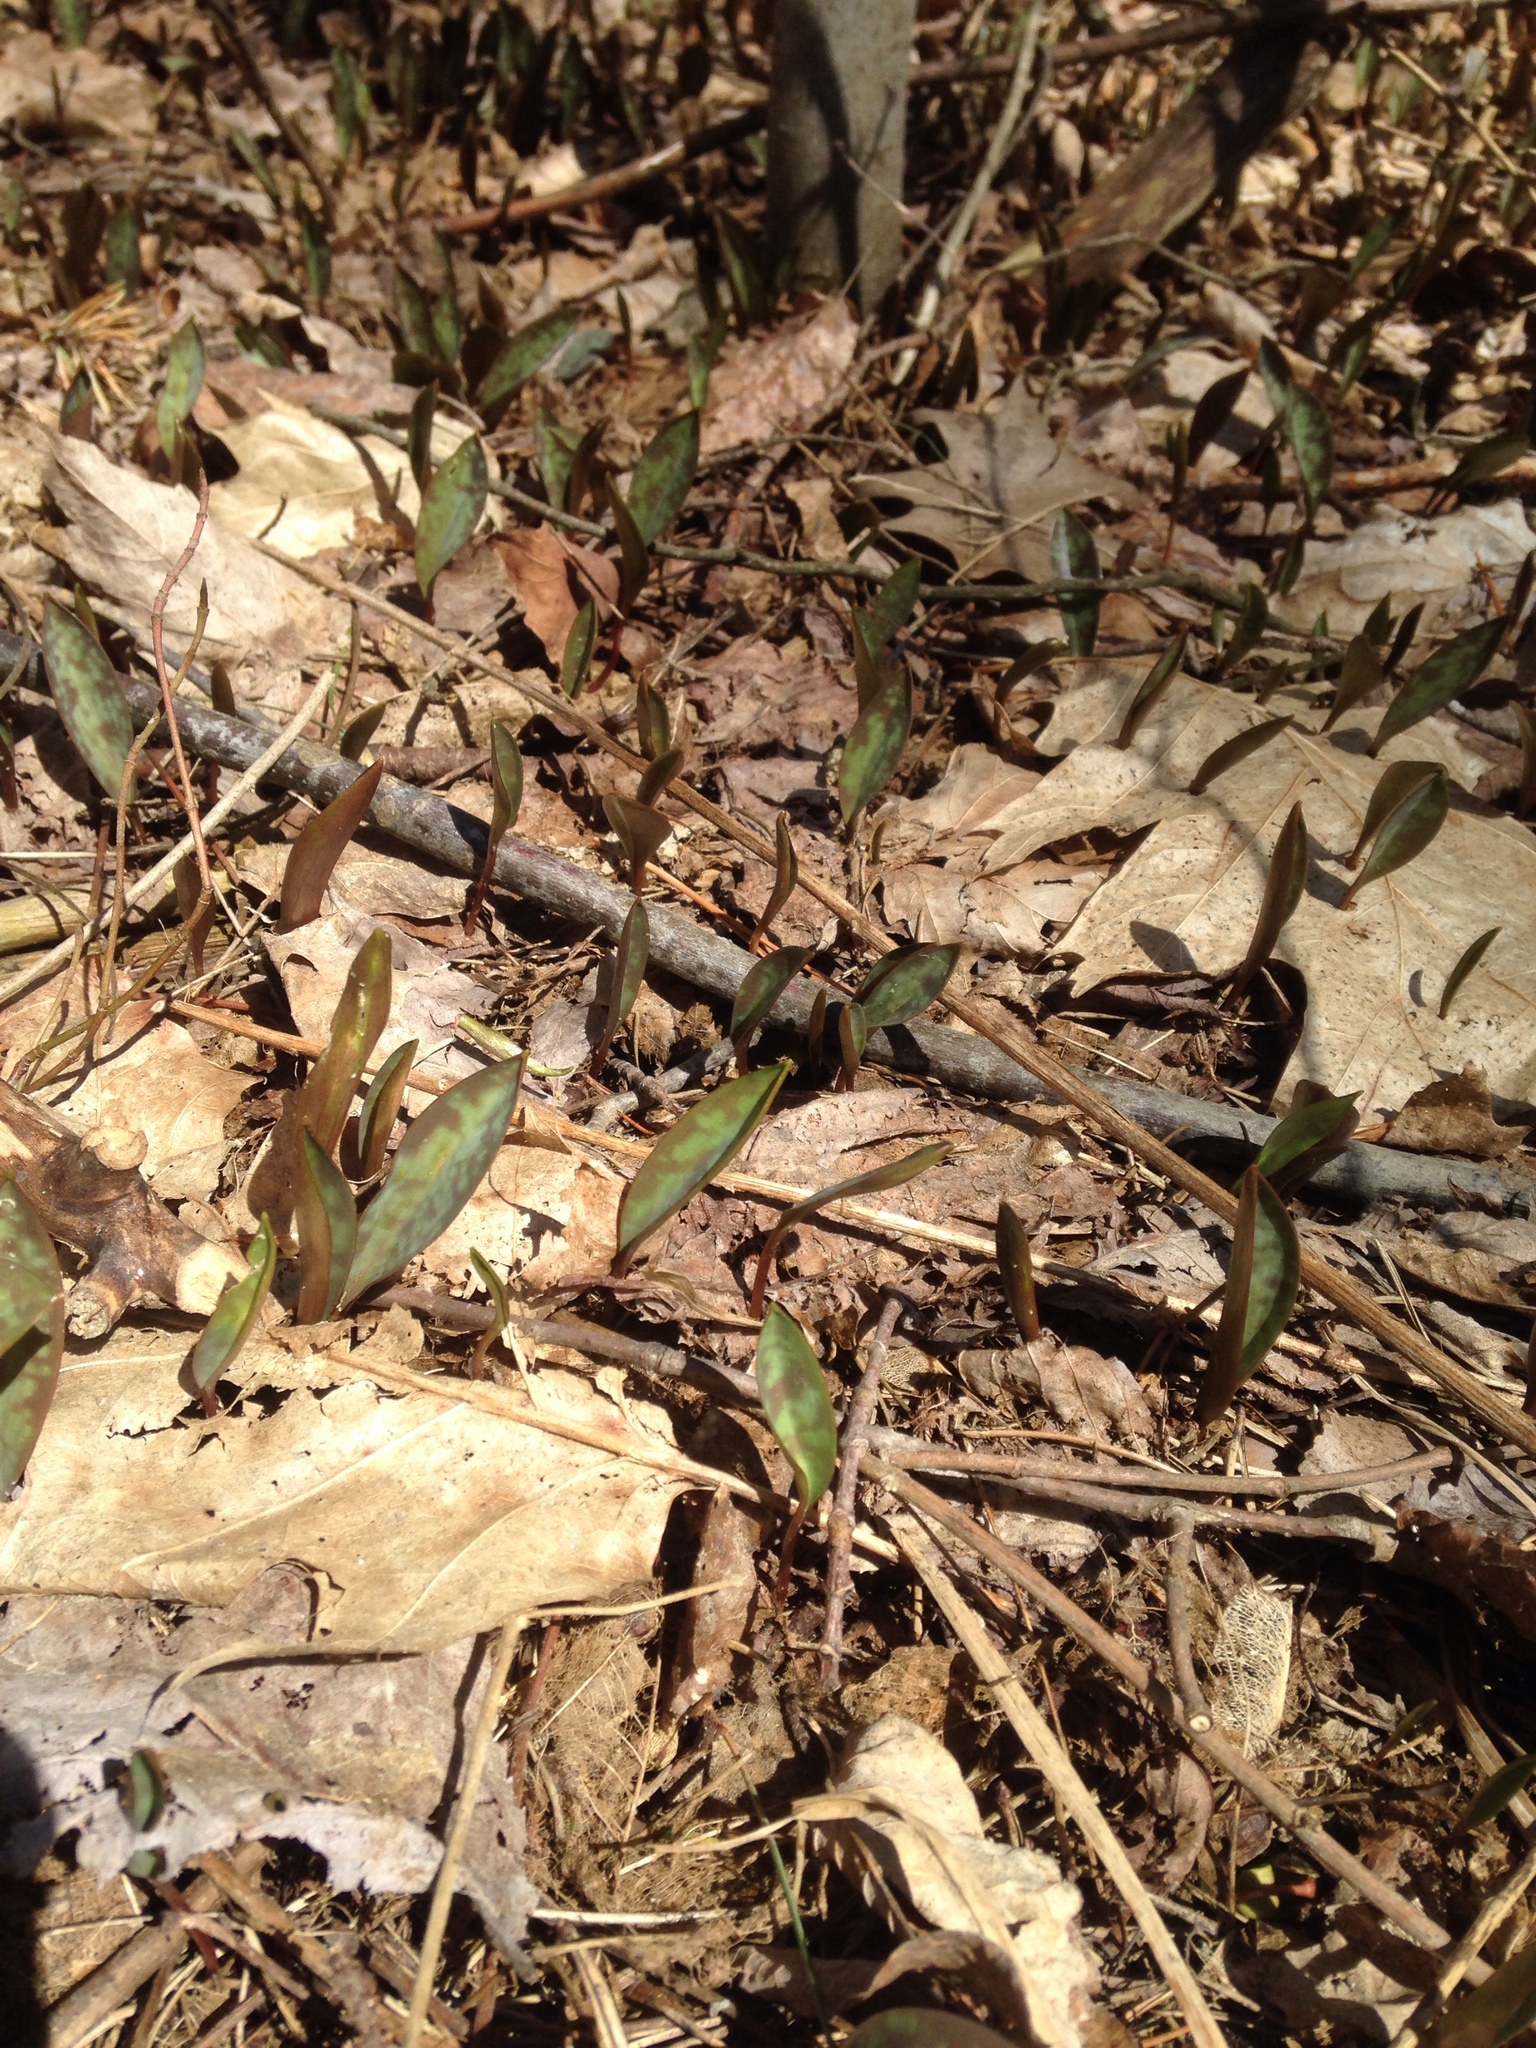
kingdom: Plantae
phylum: Tracheophyta
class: Liliopsida
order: Liliales
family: Liliaceae
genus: Erythronium
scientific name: Erythronium americanum
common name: Yellow adder's-tongue
